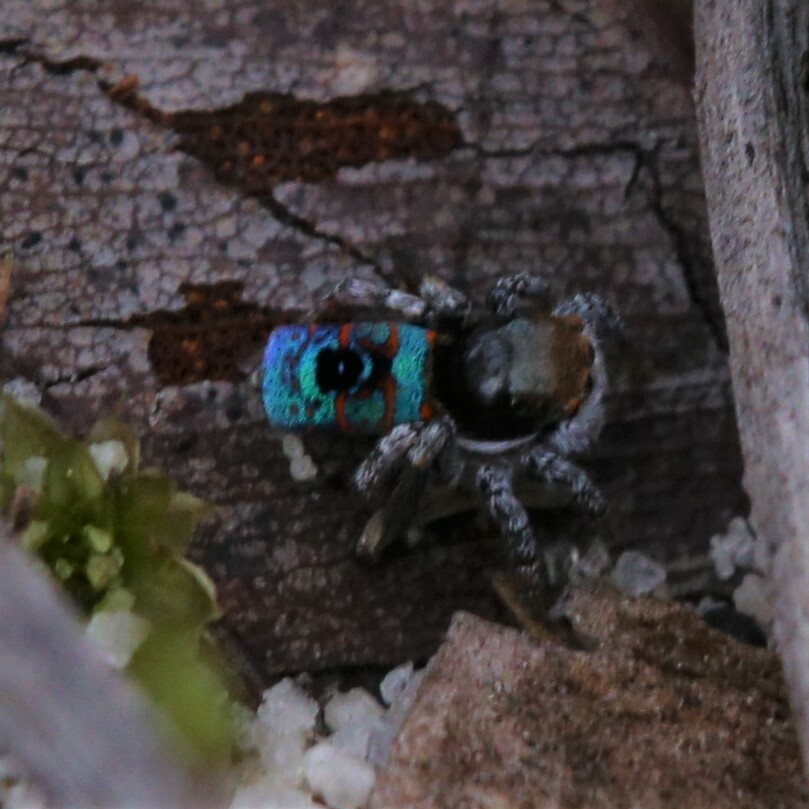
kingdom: Animalia
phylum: Arthropoda
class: Arachnida
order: Araneae
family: Salticidae
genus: Maratus
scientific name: Maratus mungaich
